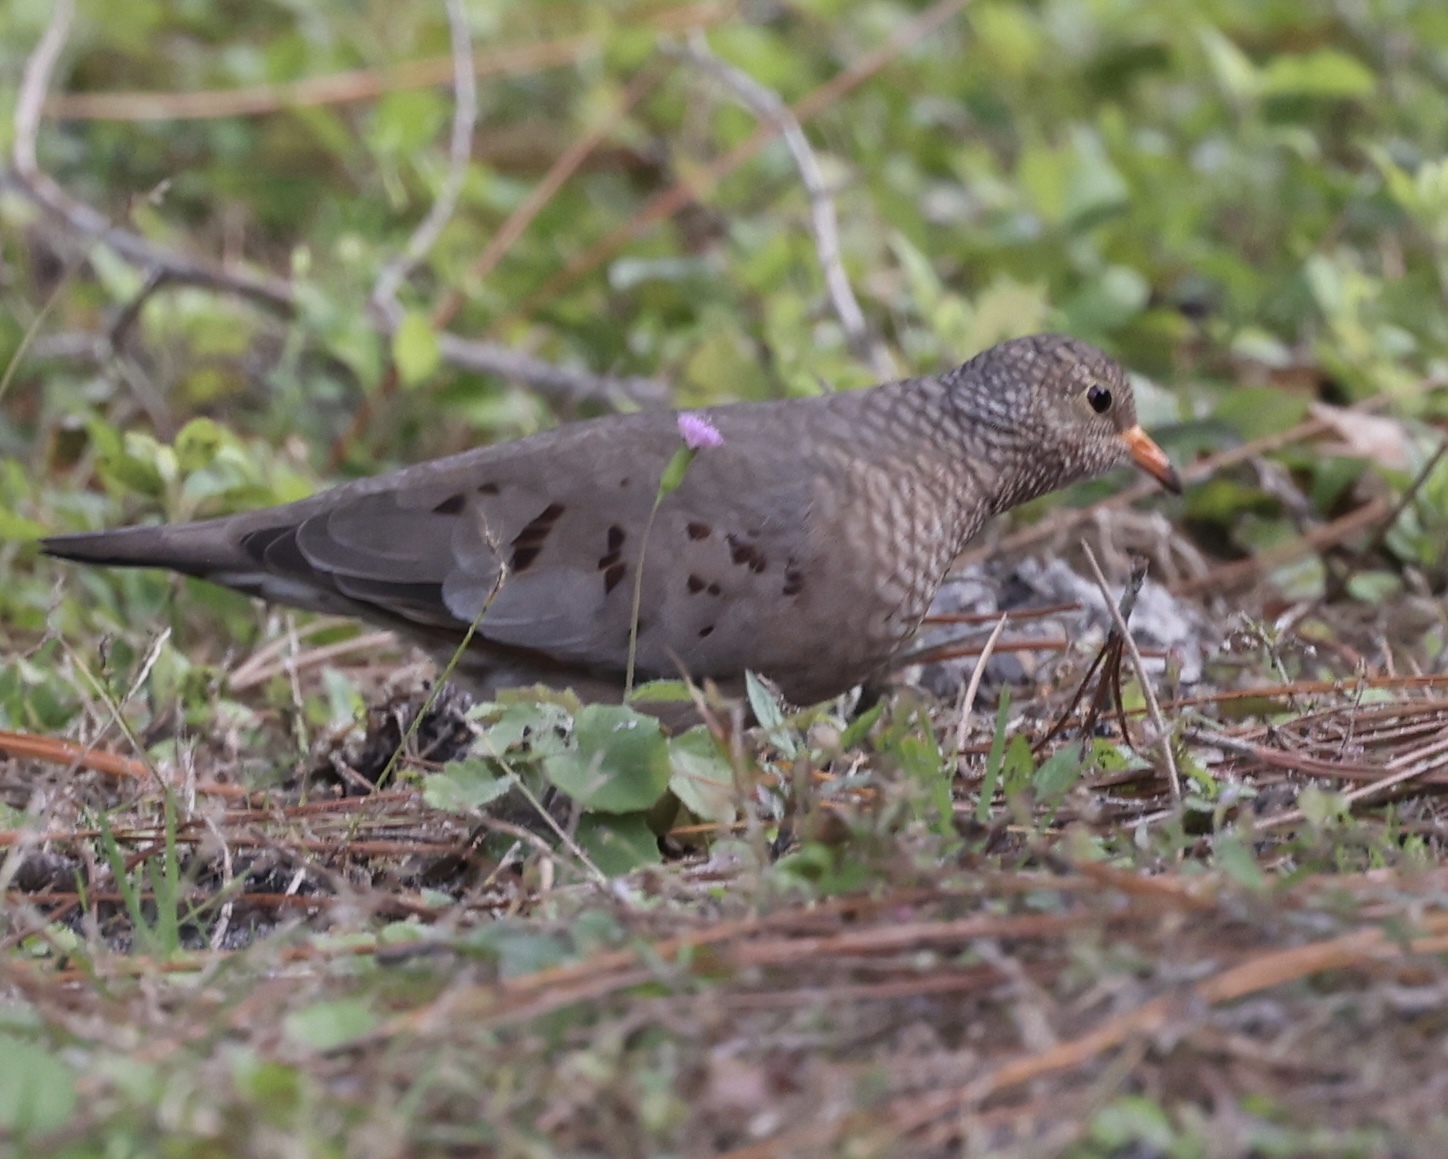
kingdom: Animalia
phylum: Chordata
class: Aves
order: Columbiformes
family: Columbidae
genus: Columbina
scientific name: Columbina passerina
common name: Common ground-dove
